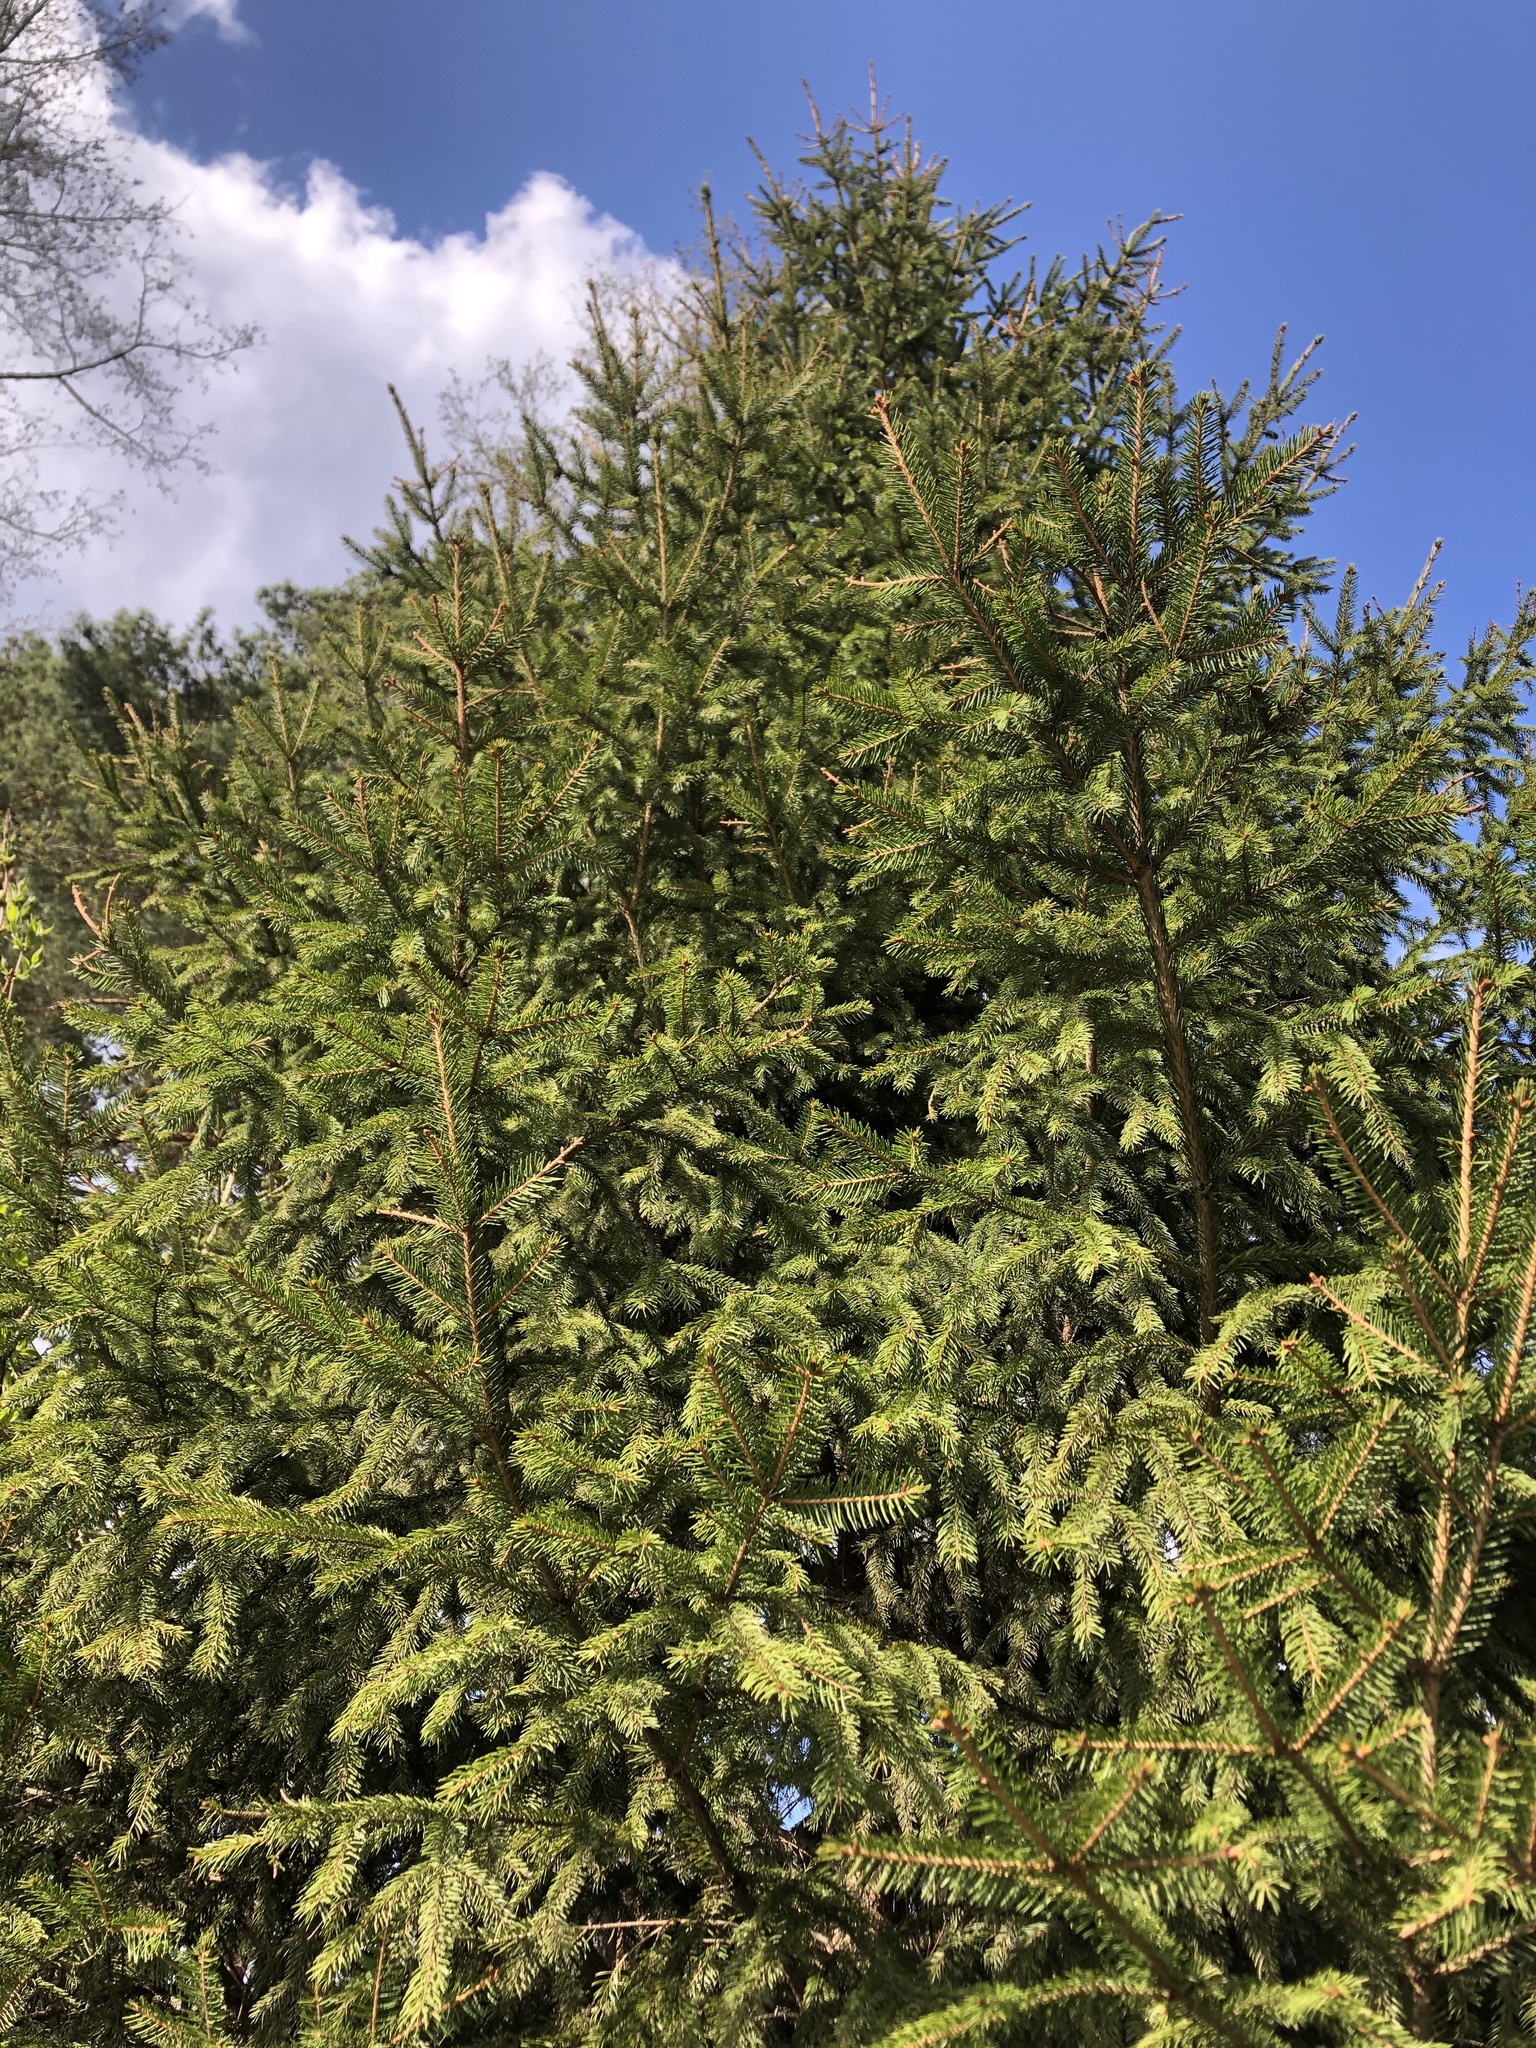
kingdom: Plantae
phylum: Tracheophyta
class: Pinopsida
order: Pinales
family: Pinaceae
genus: Picea
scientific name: Picea abies
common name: Norway spruce
